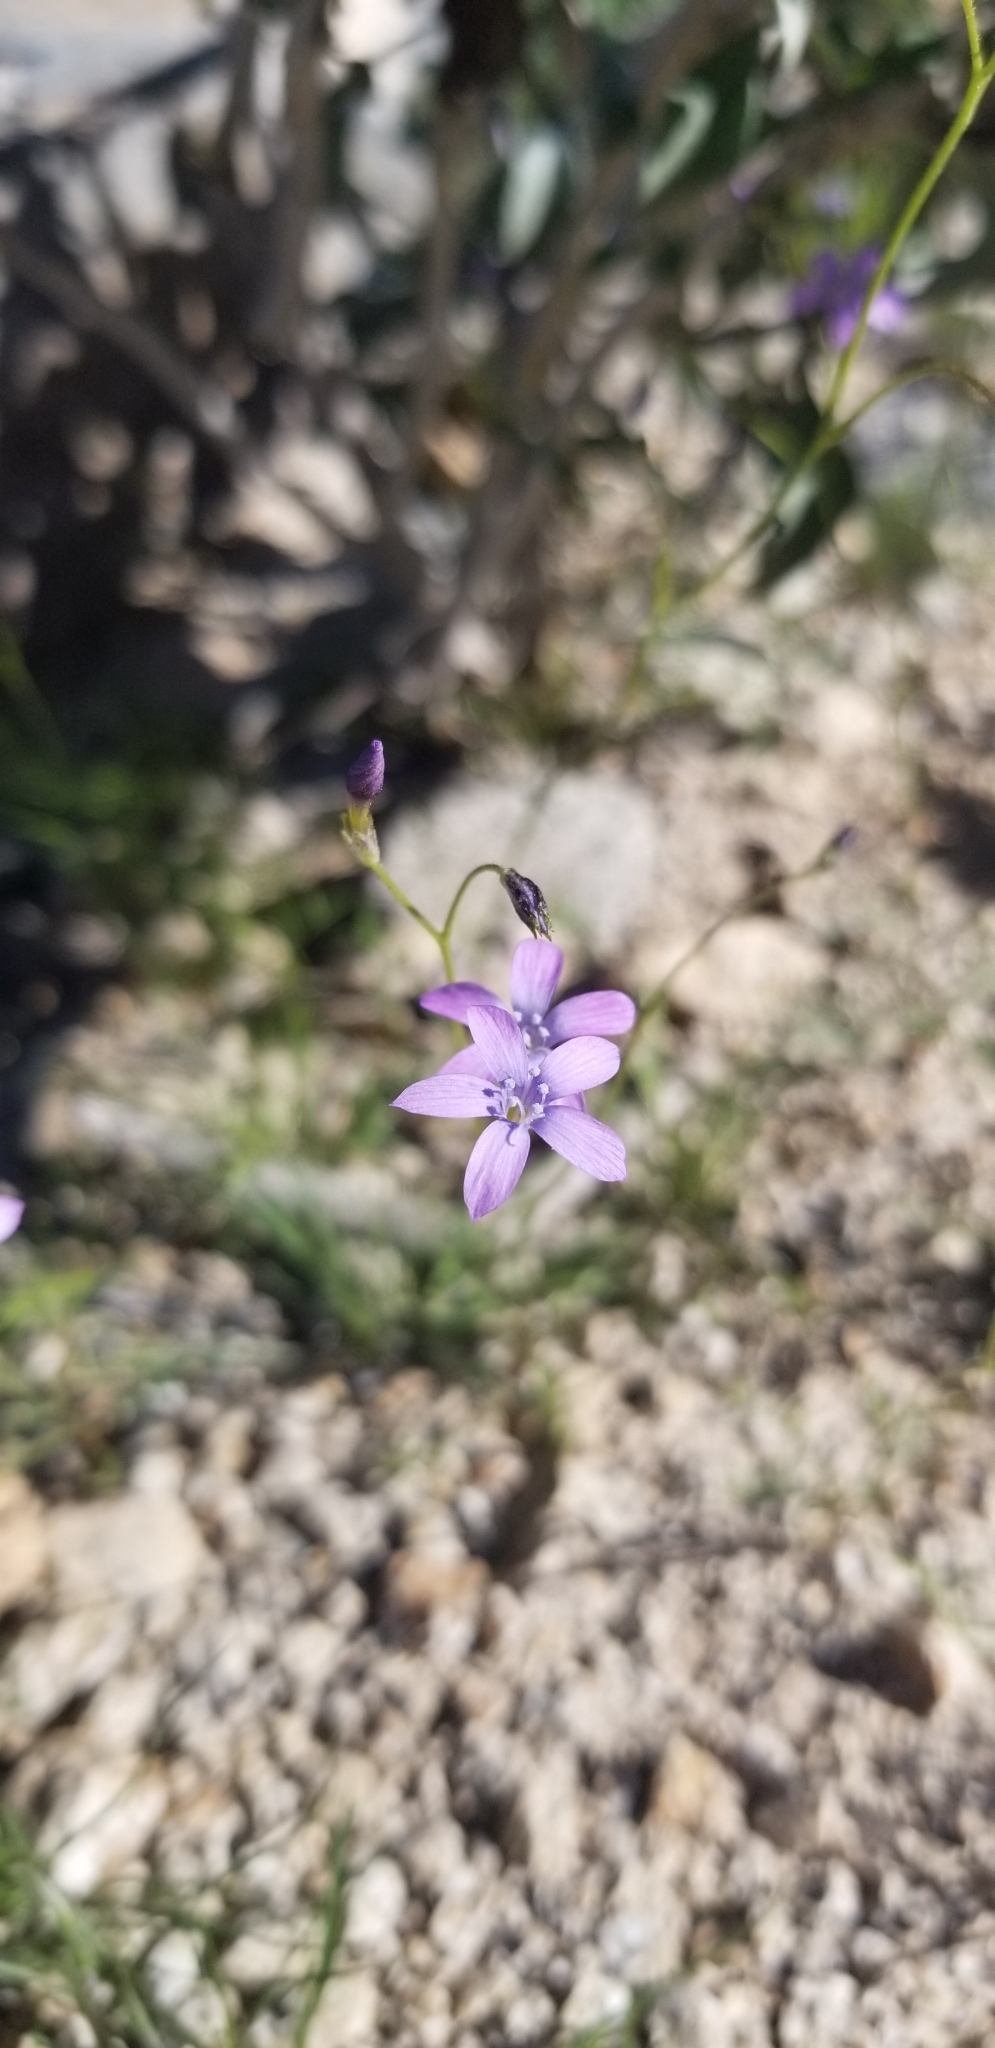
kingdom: Plantae
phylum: Tracheophyta
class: Magnoliopsida
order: Ericales
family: Polemoniaceae
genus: Gilia
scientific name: Gilia flavocincta
